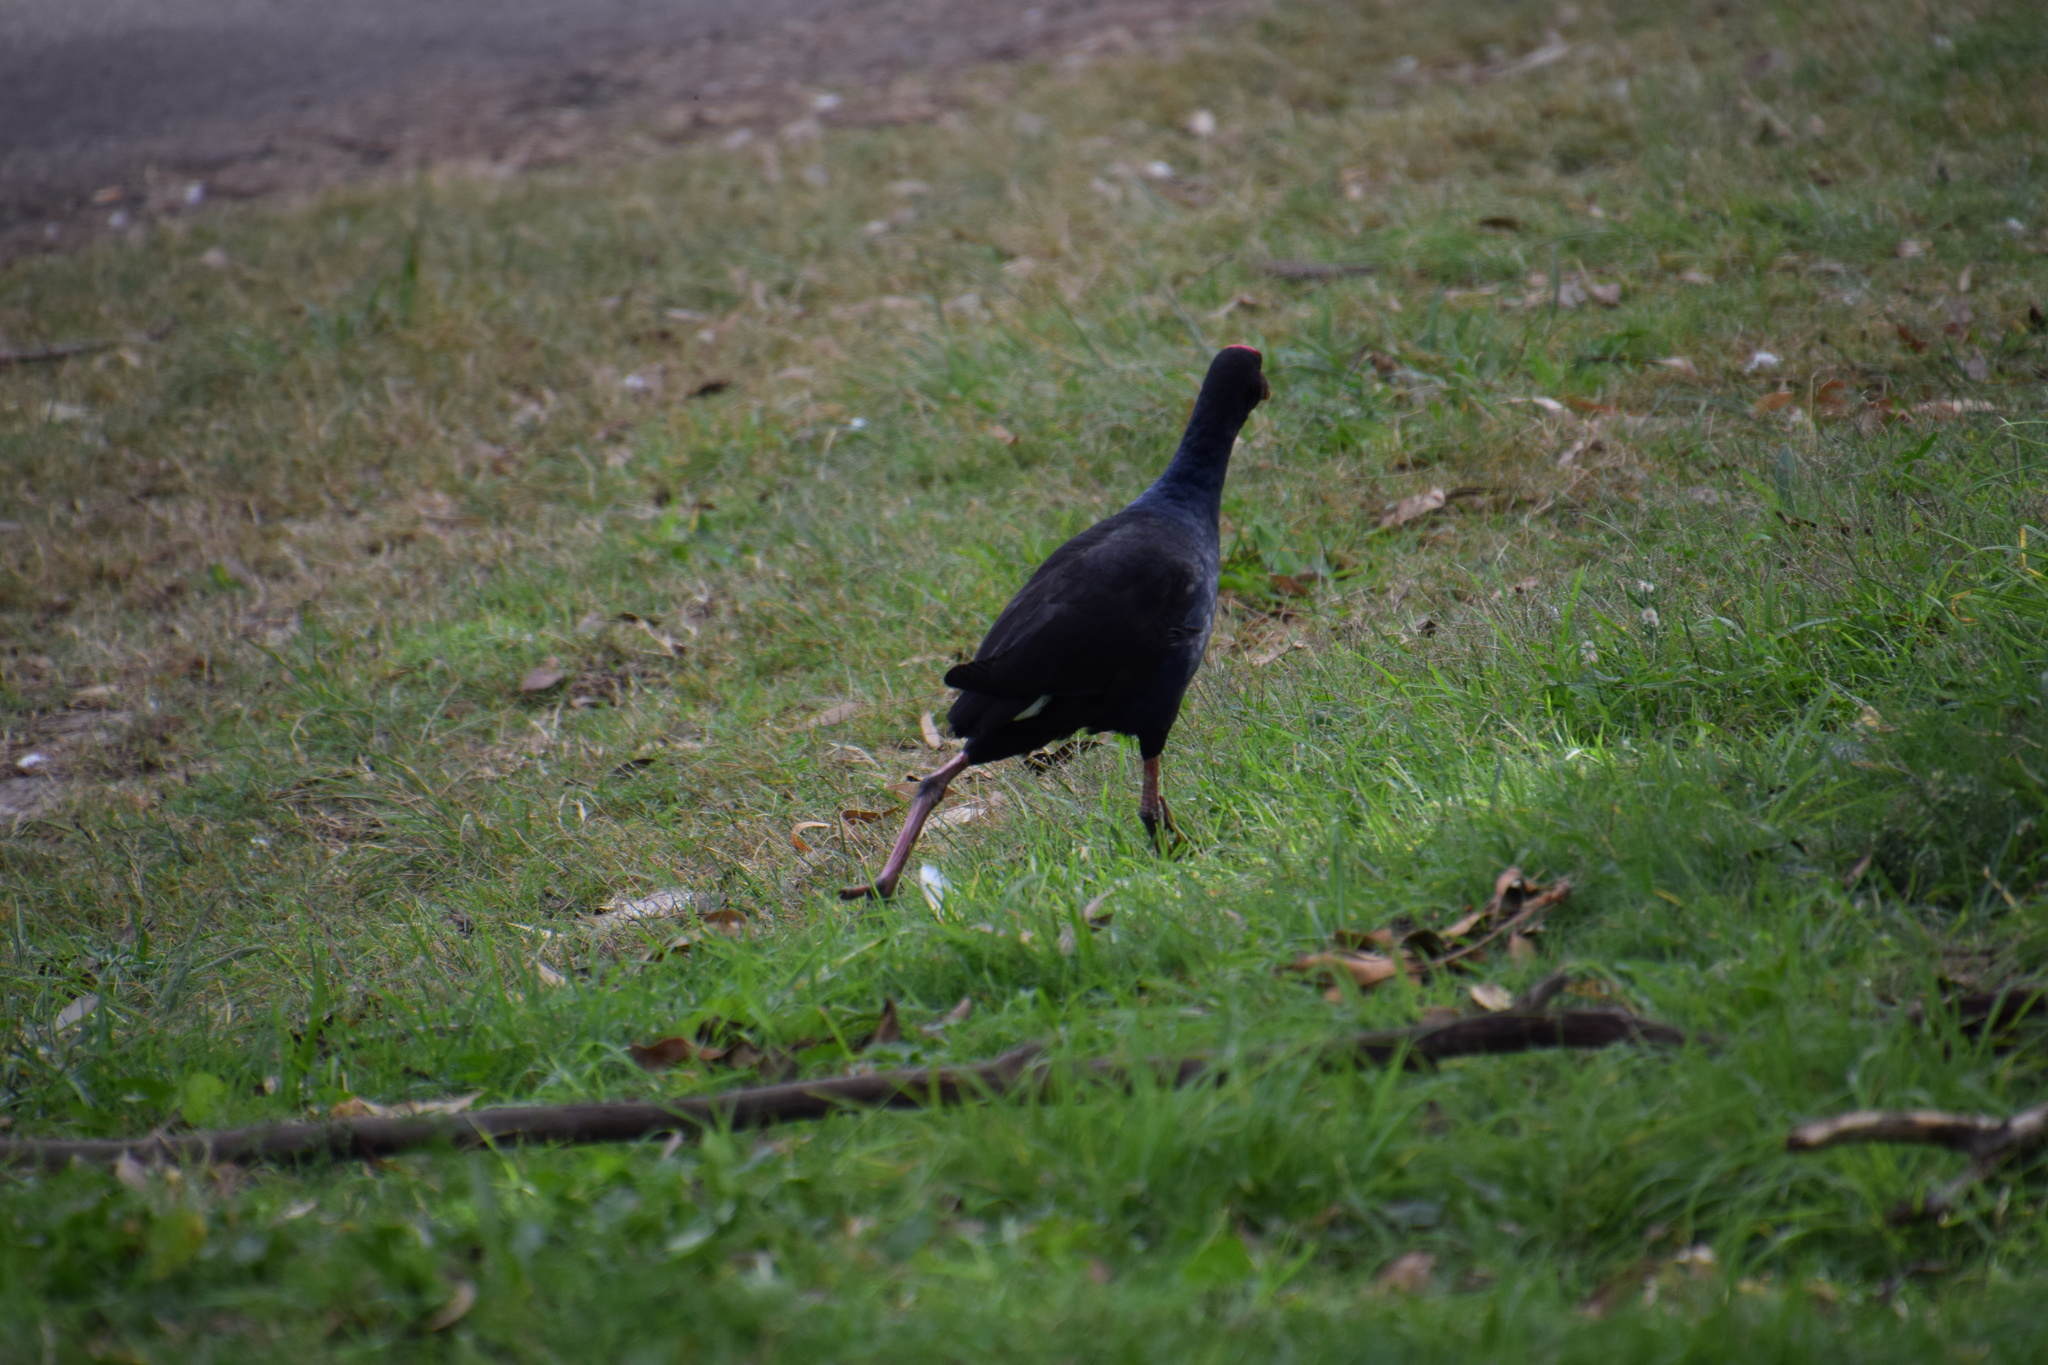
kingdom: Animalia
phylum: Chordata
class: Aves
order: Gruiformes
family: Rallidae
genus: Porphyrio
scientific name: Porphyrio melanotus
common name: Australasian swamphen
